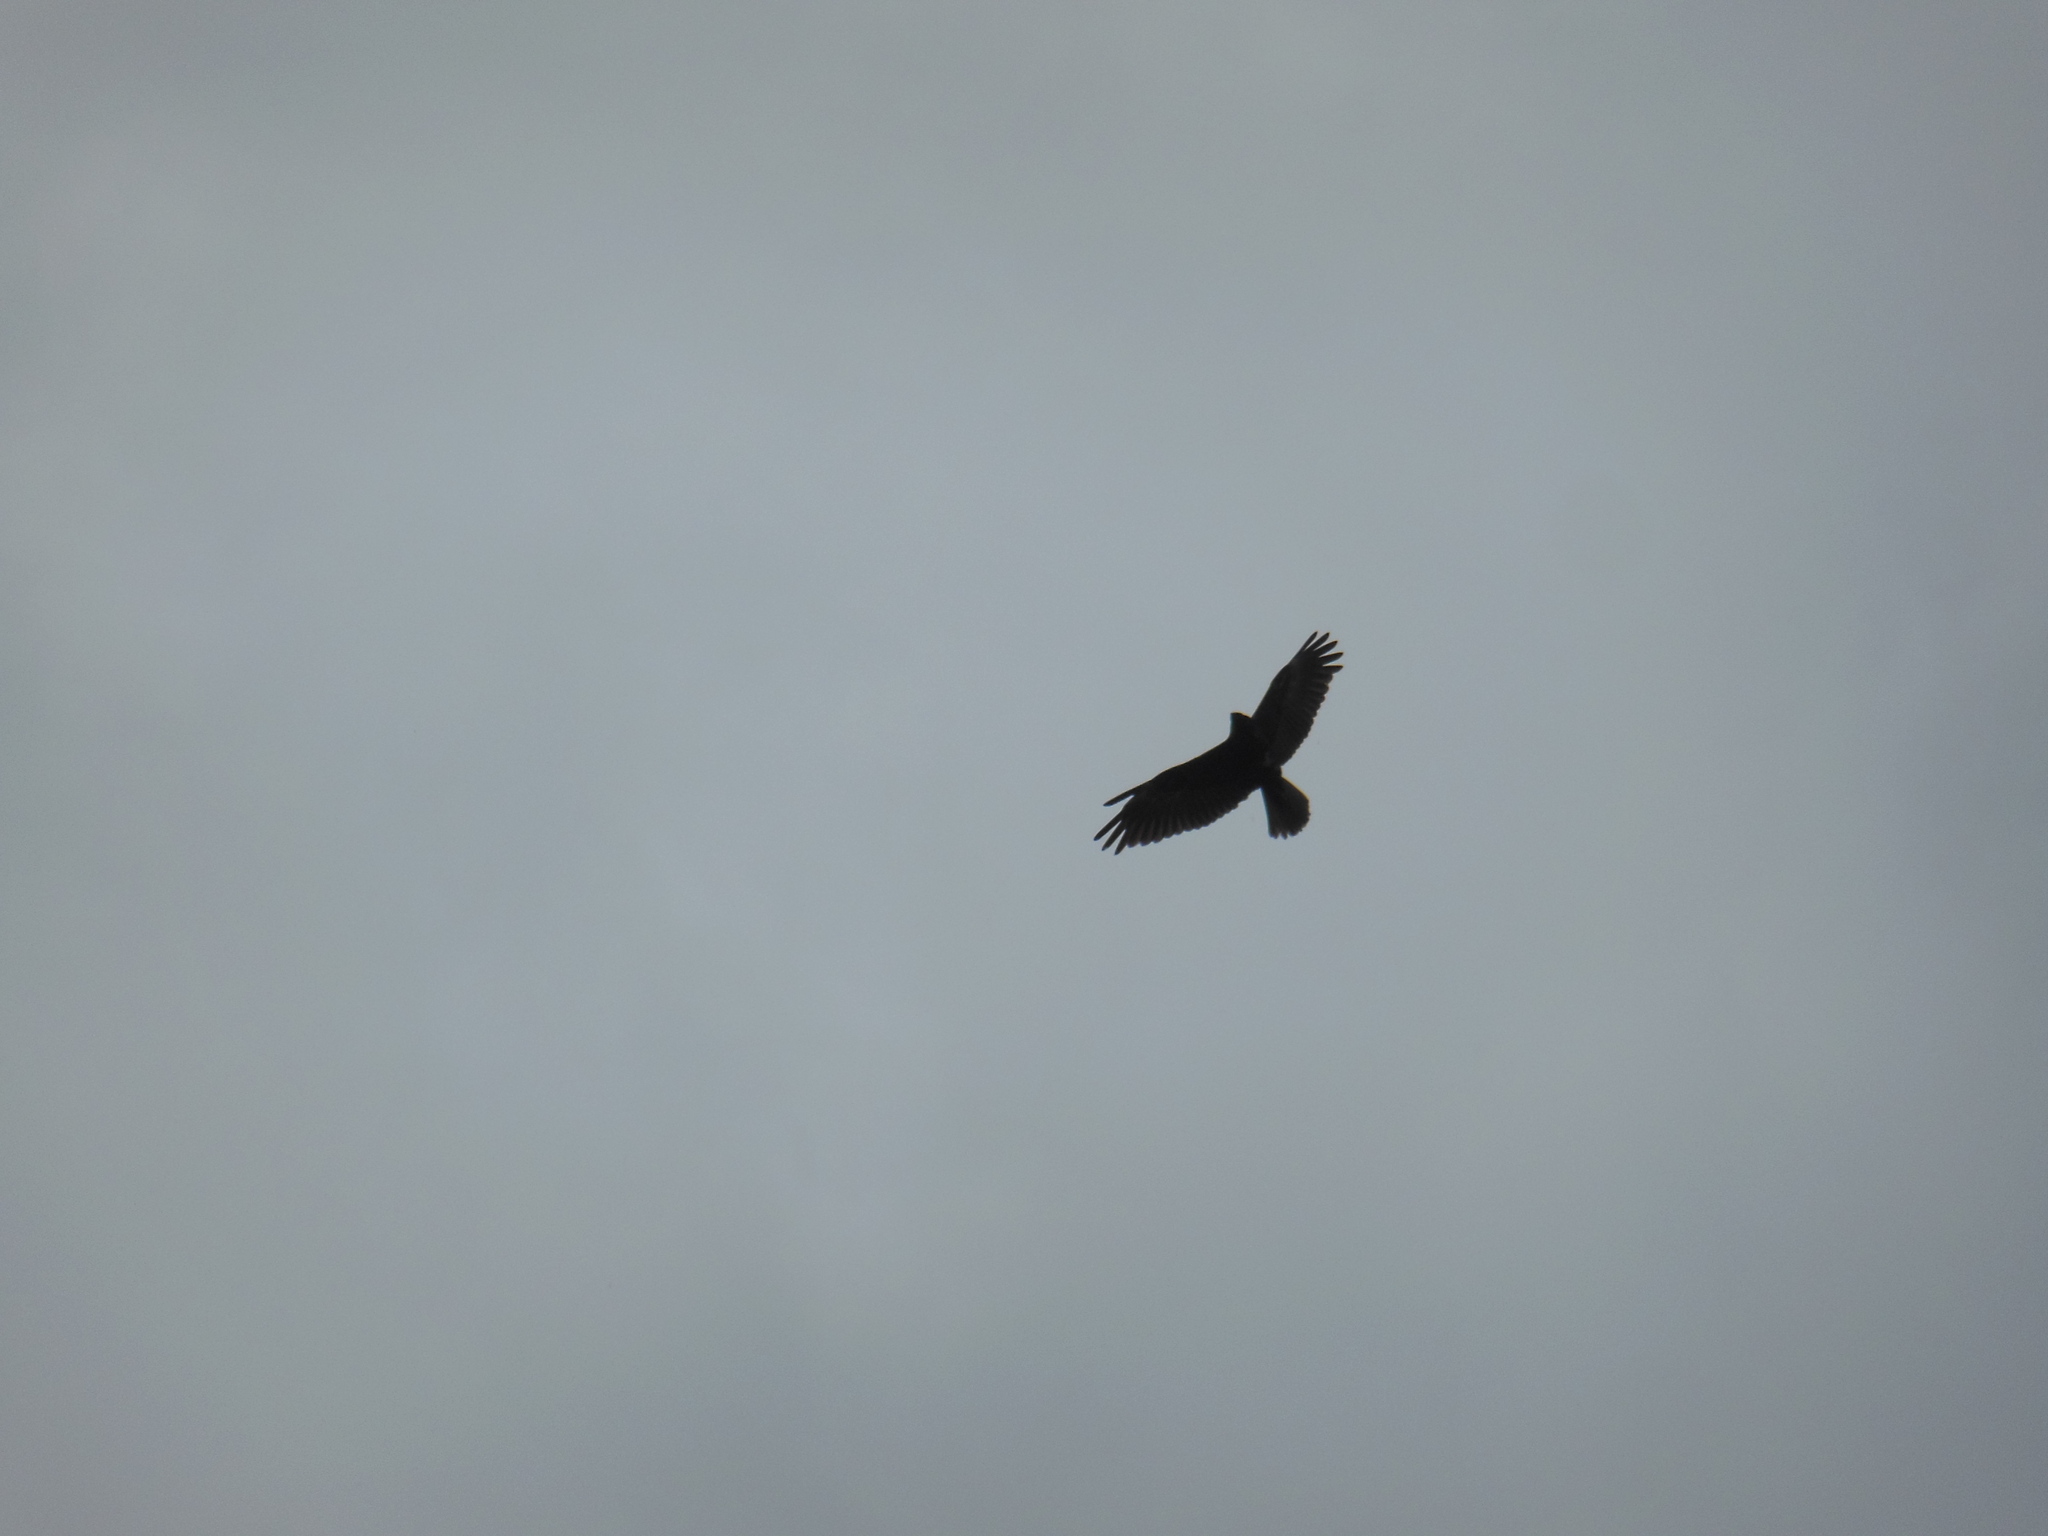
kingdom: Animalia
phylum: Chordata
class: Aves
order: Accipitriformes
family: Accipitridae
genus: Circus
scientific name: Circus aeruginosus
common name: Western marsh harrier
